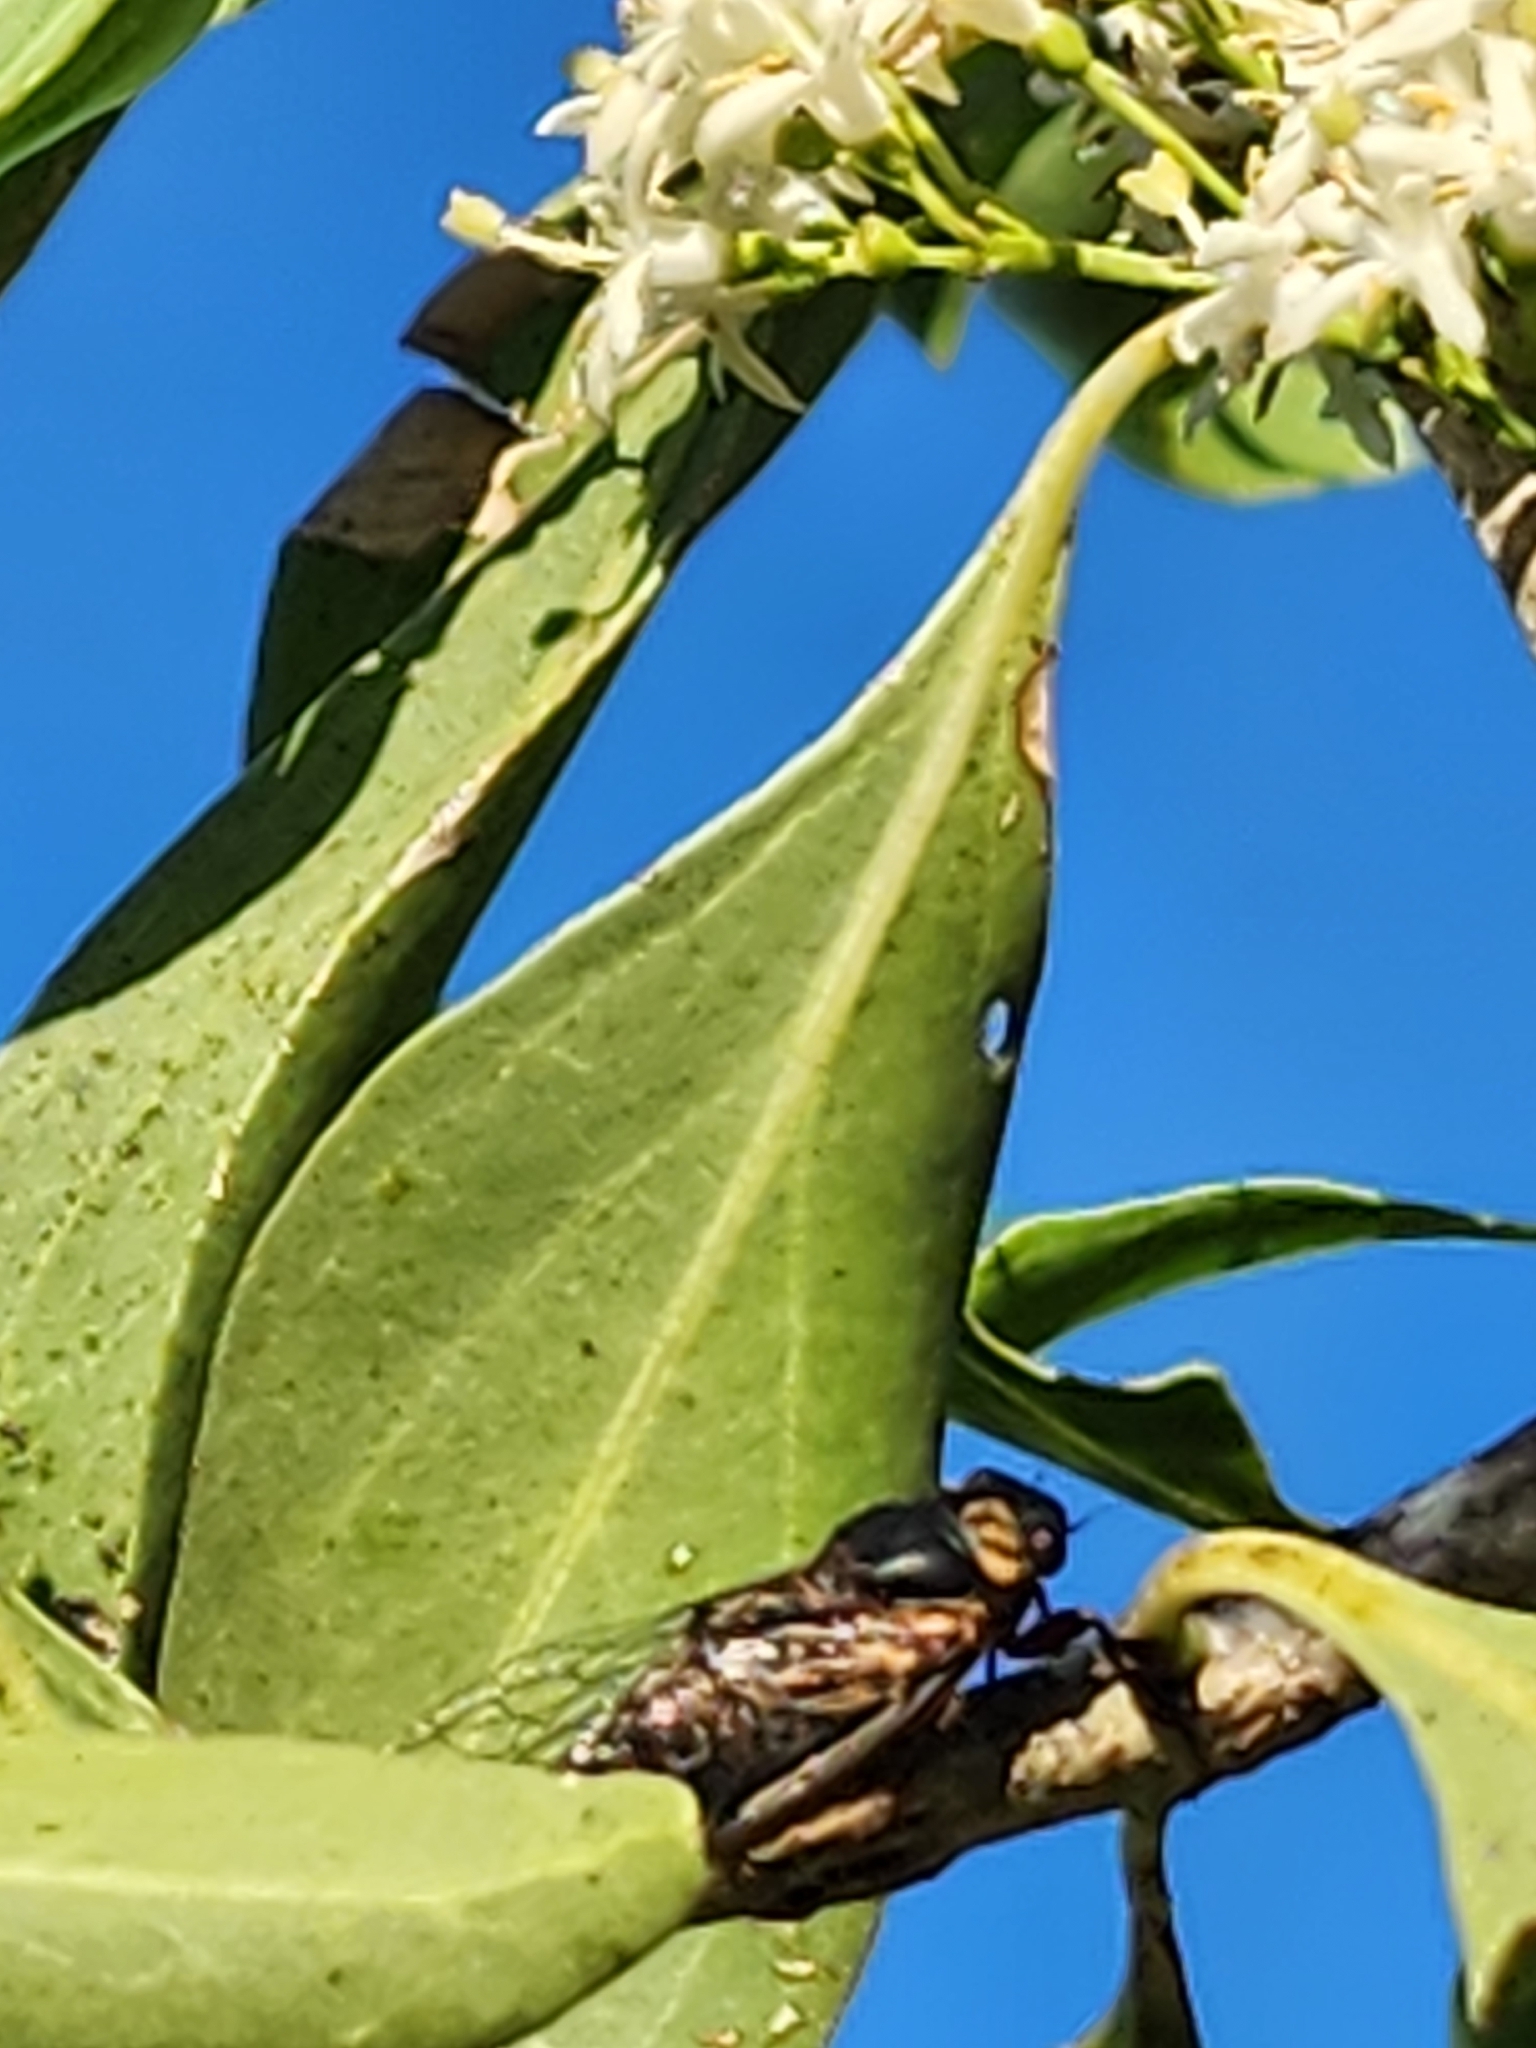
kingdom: Animalia
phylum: Arthropoda
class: Insecta
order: Hemiptera
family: Cicadidae
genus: Tryella
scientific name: Tryella willsi
